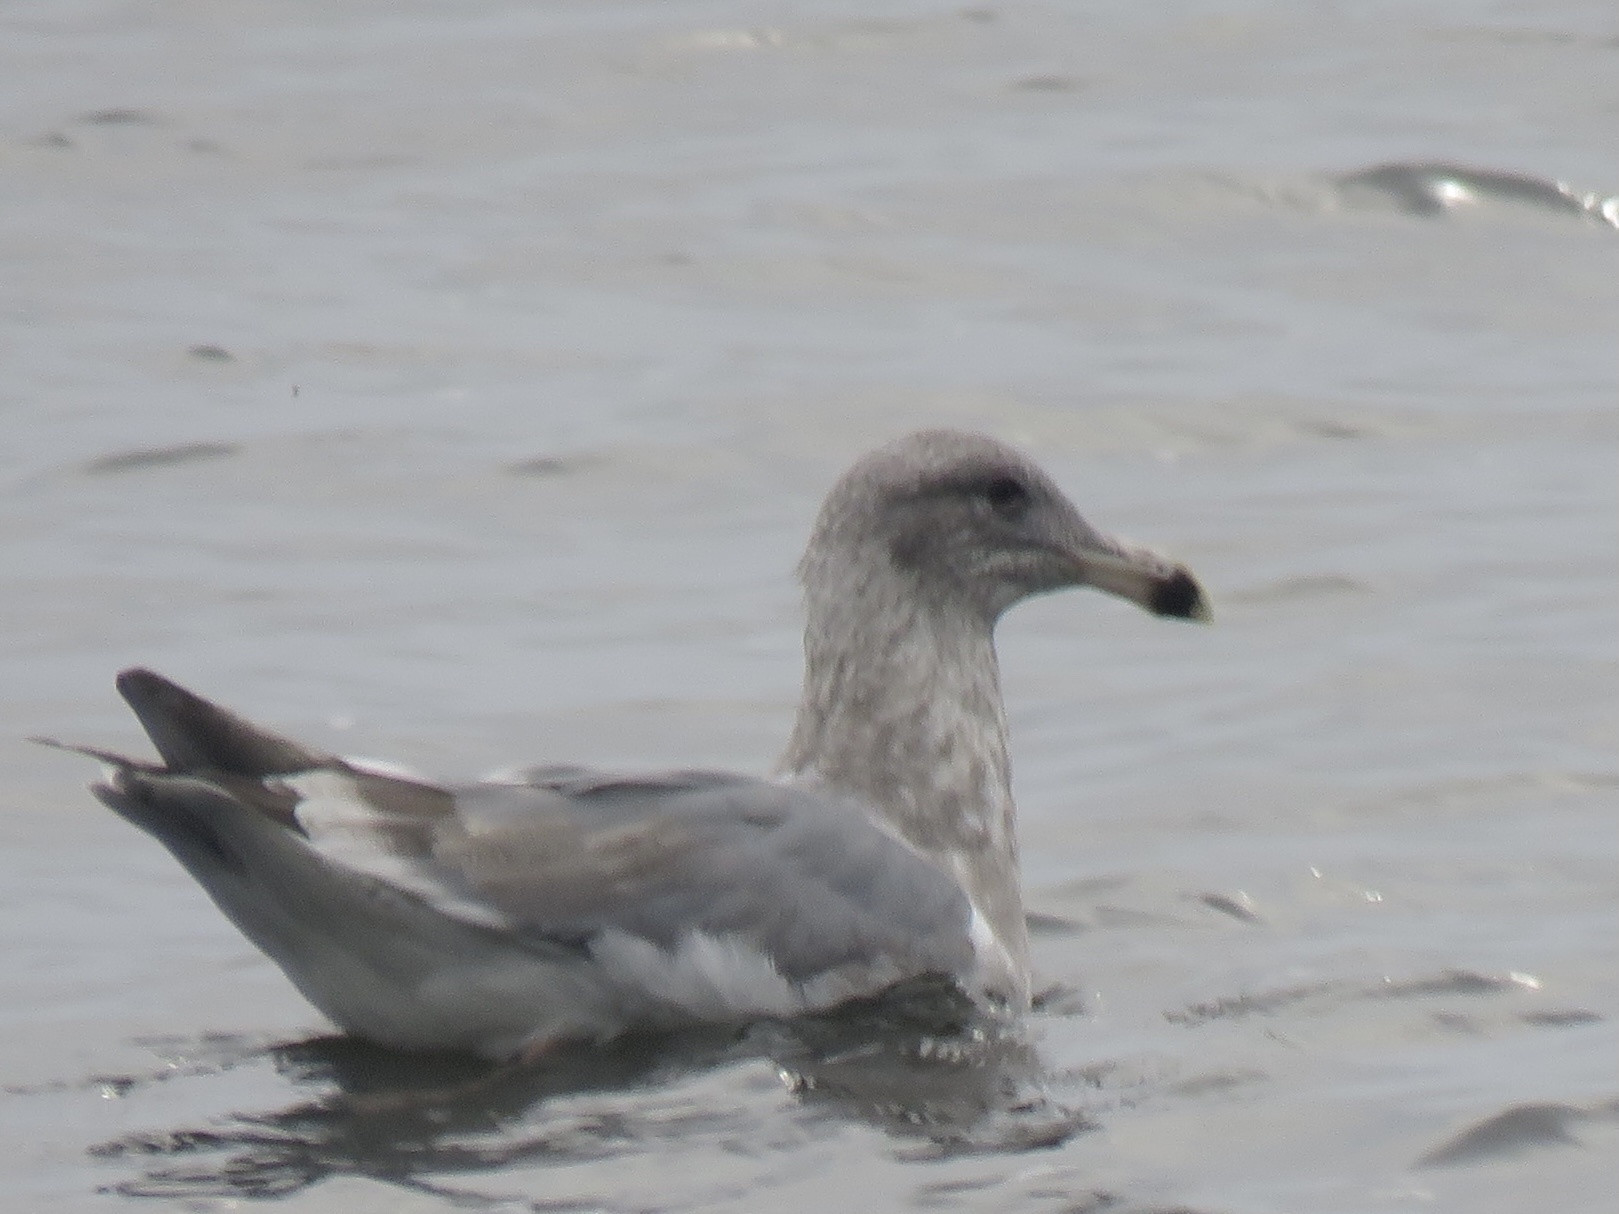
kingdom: Animalia
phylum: Chordata
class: Aves
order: Charadriiformes
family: Laridae
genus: Larus
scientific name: Larus
